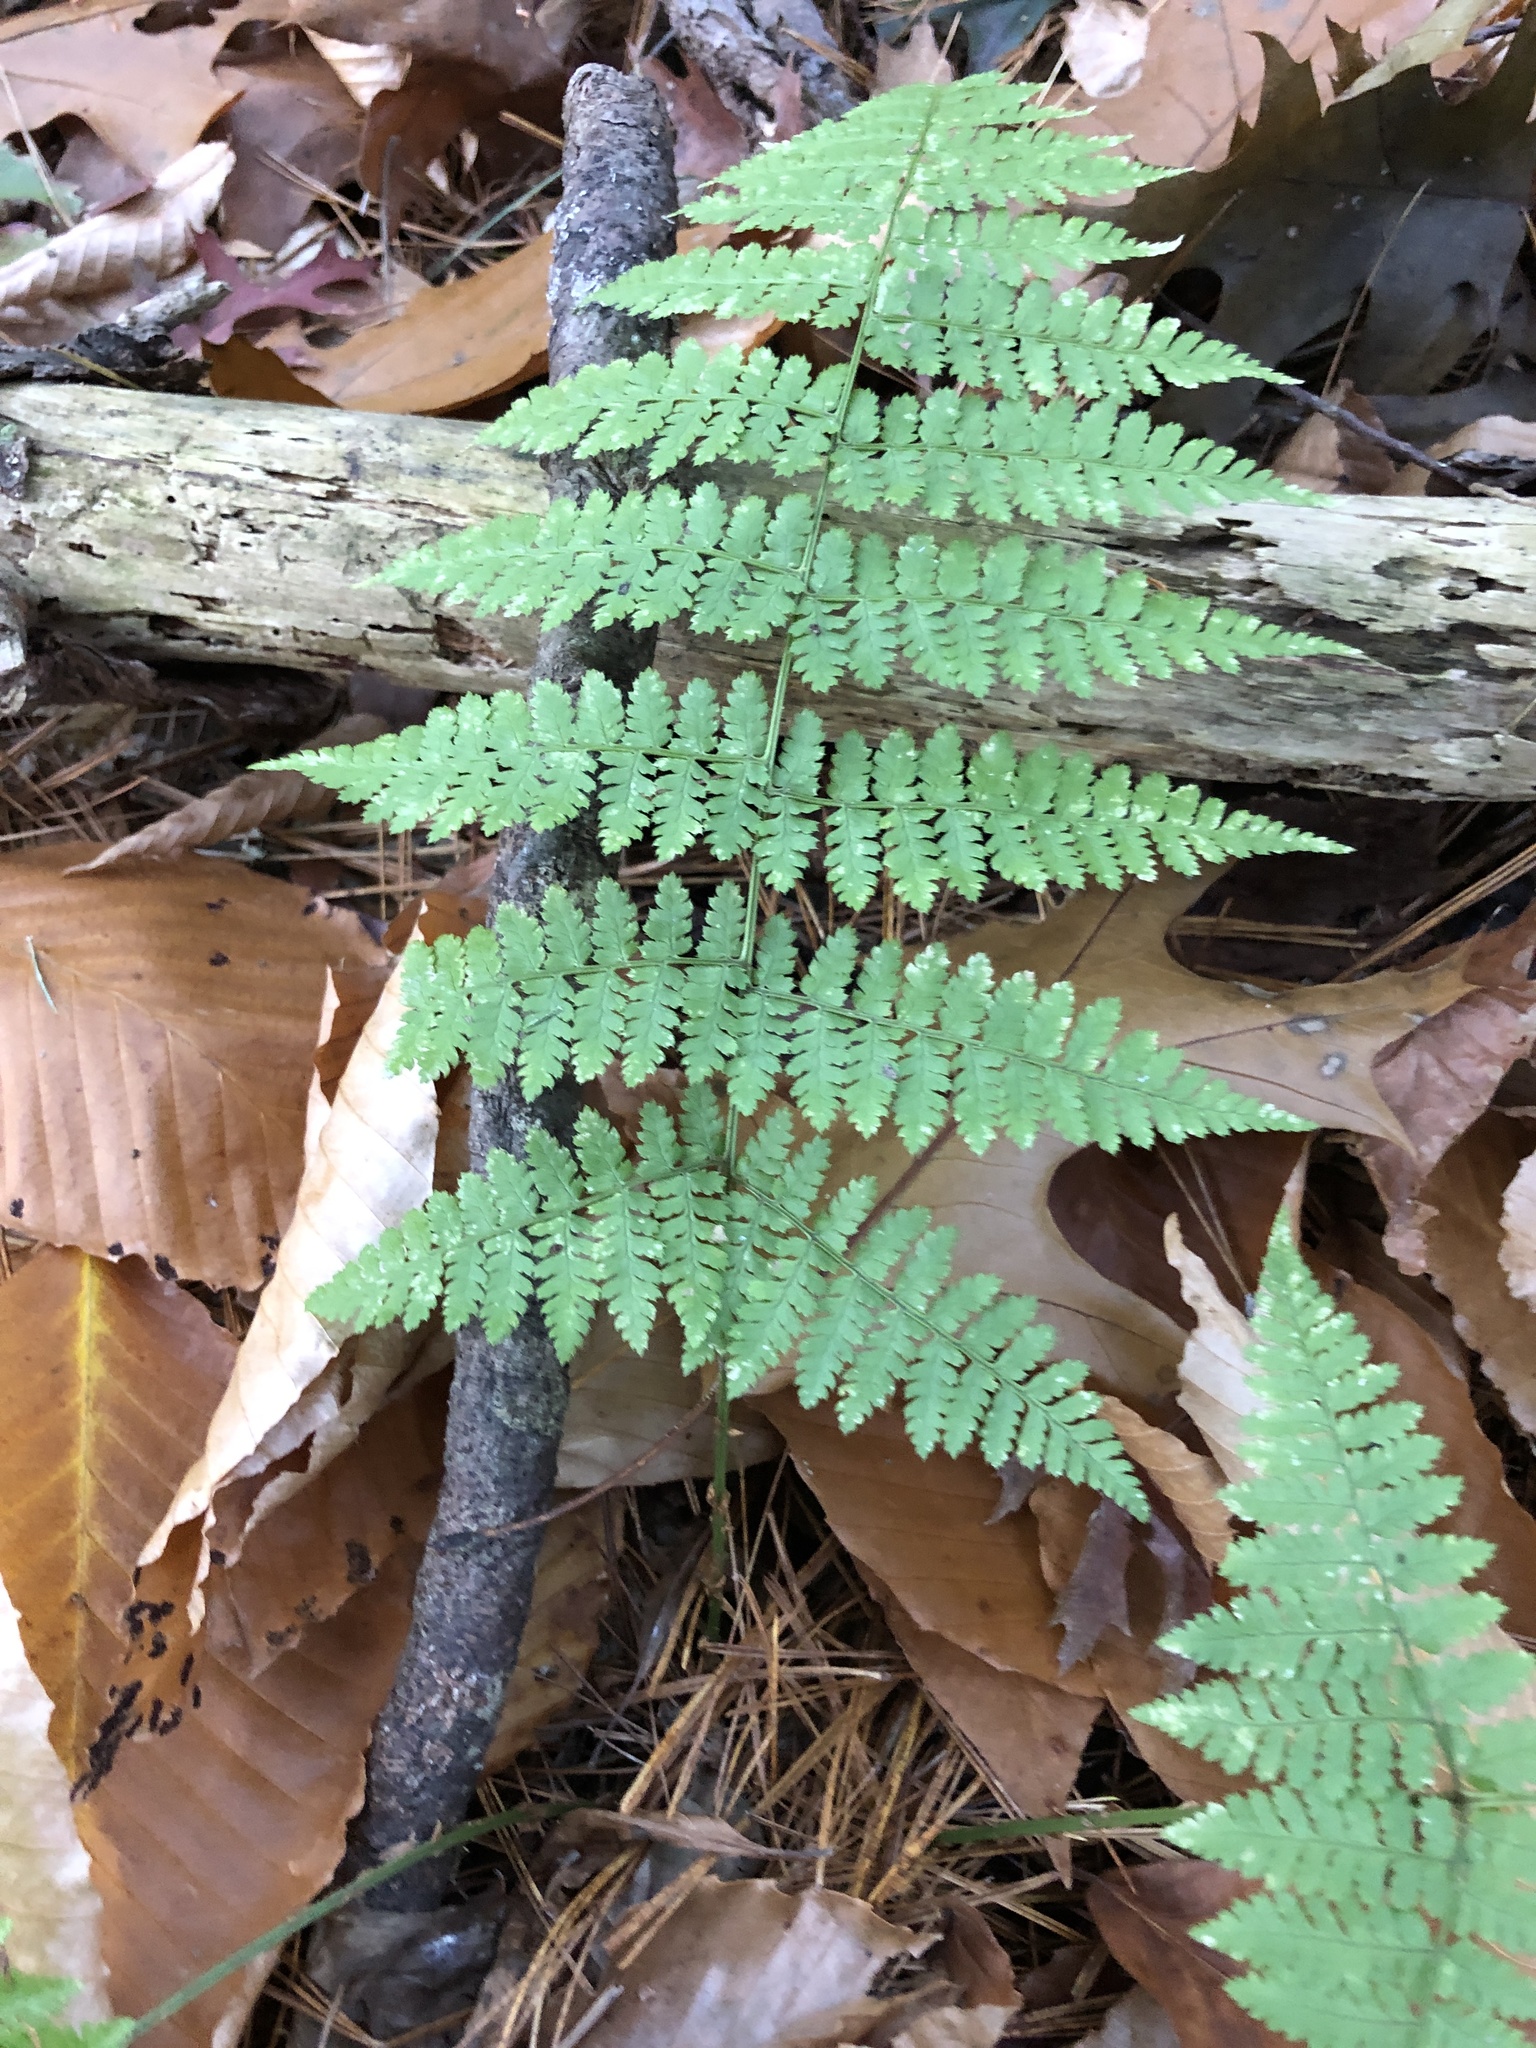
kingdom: Plantae
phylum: Tracheophyta
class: Polypodiopsida
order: Polypodiales
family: Dryopteridaceae
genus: Dryopteris
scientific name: Dryopteris intermedia
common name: Evergreen wood fern
